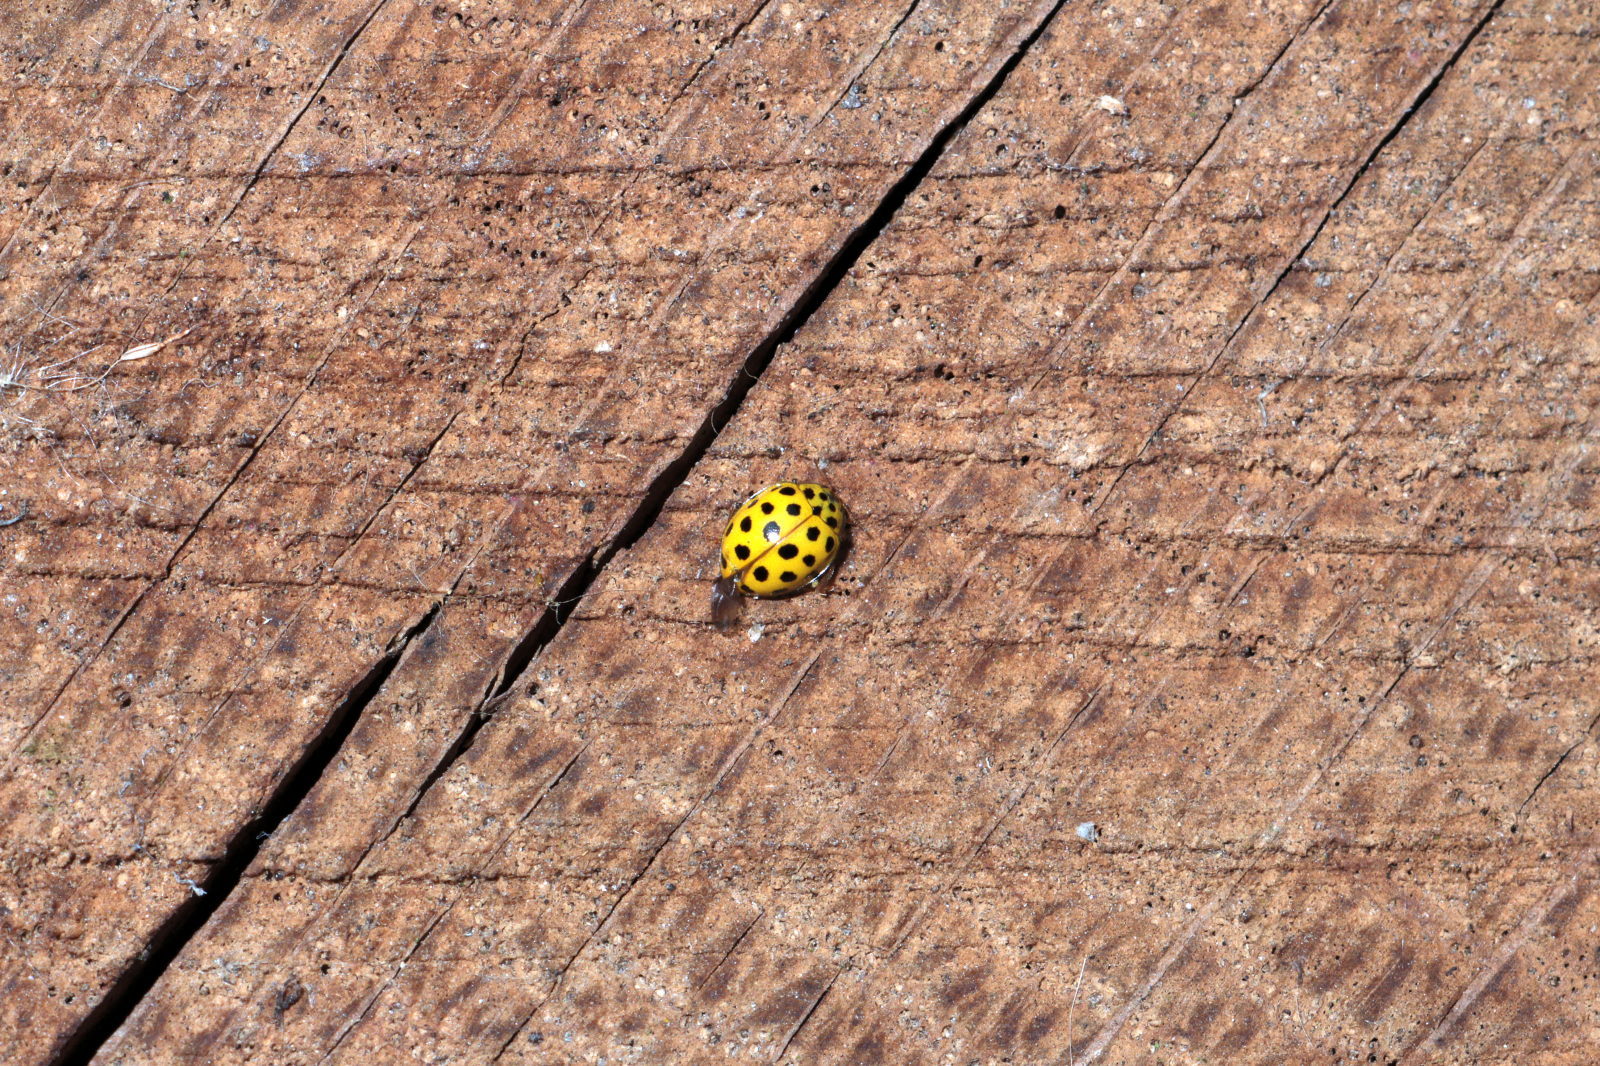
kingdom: Animalia
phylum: Arthropoda
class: Insecta
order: Coleoptera
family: Coccinellidae
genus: Psyllobora
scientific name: Psyllobora vigintiduopunctata
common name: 22-spot ladybird
